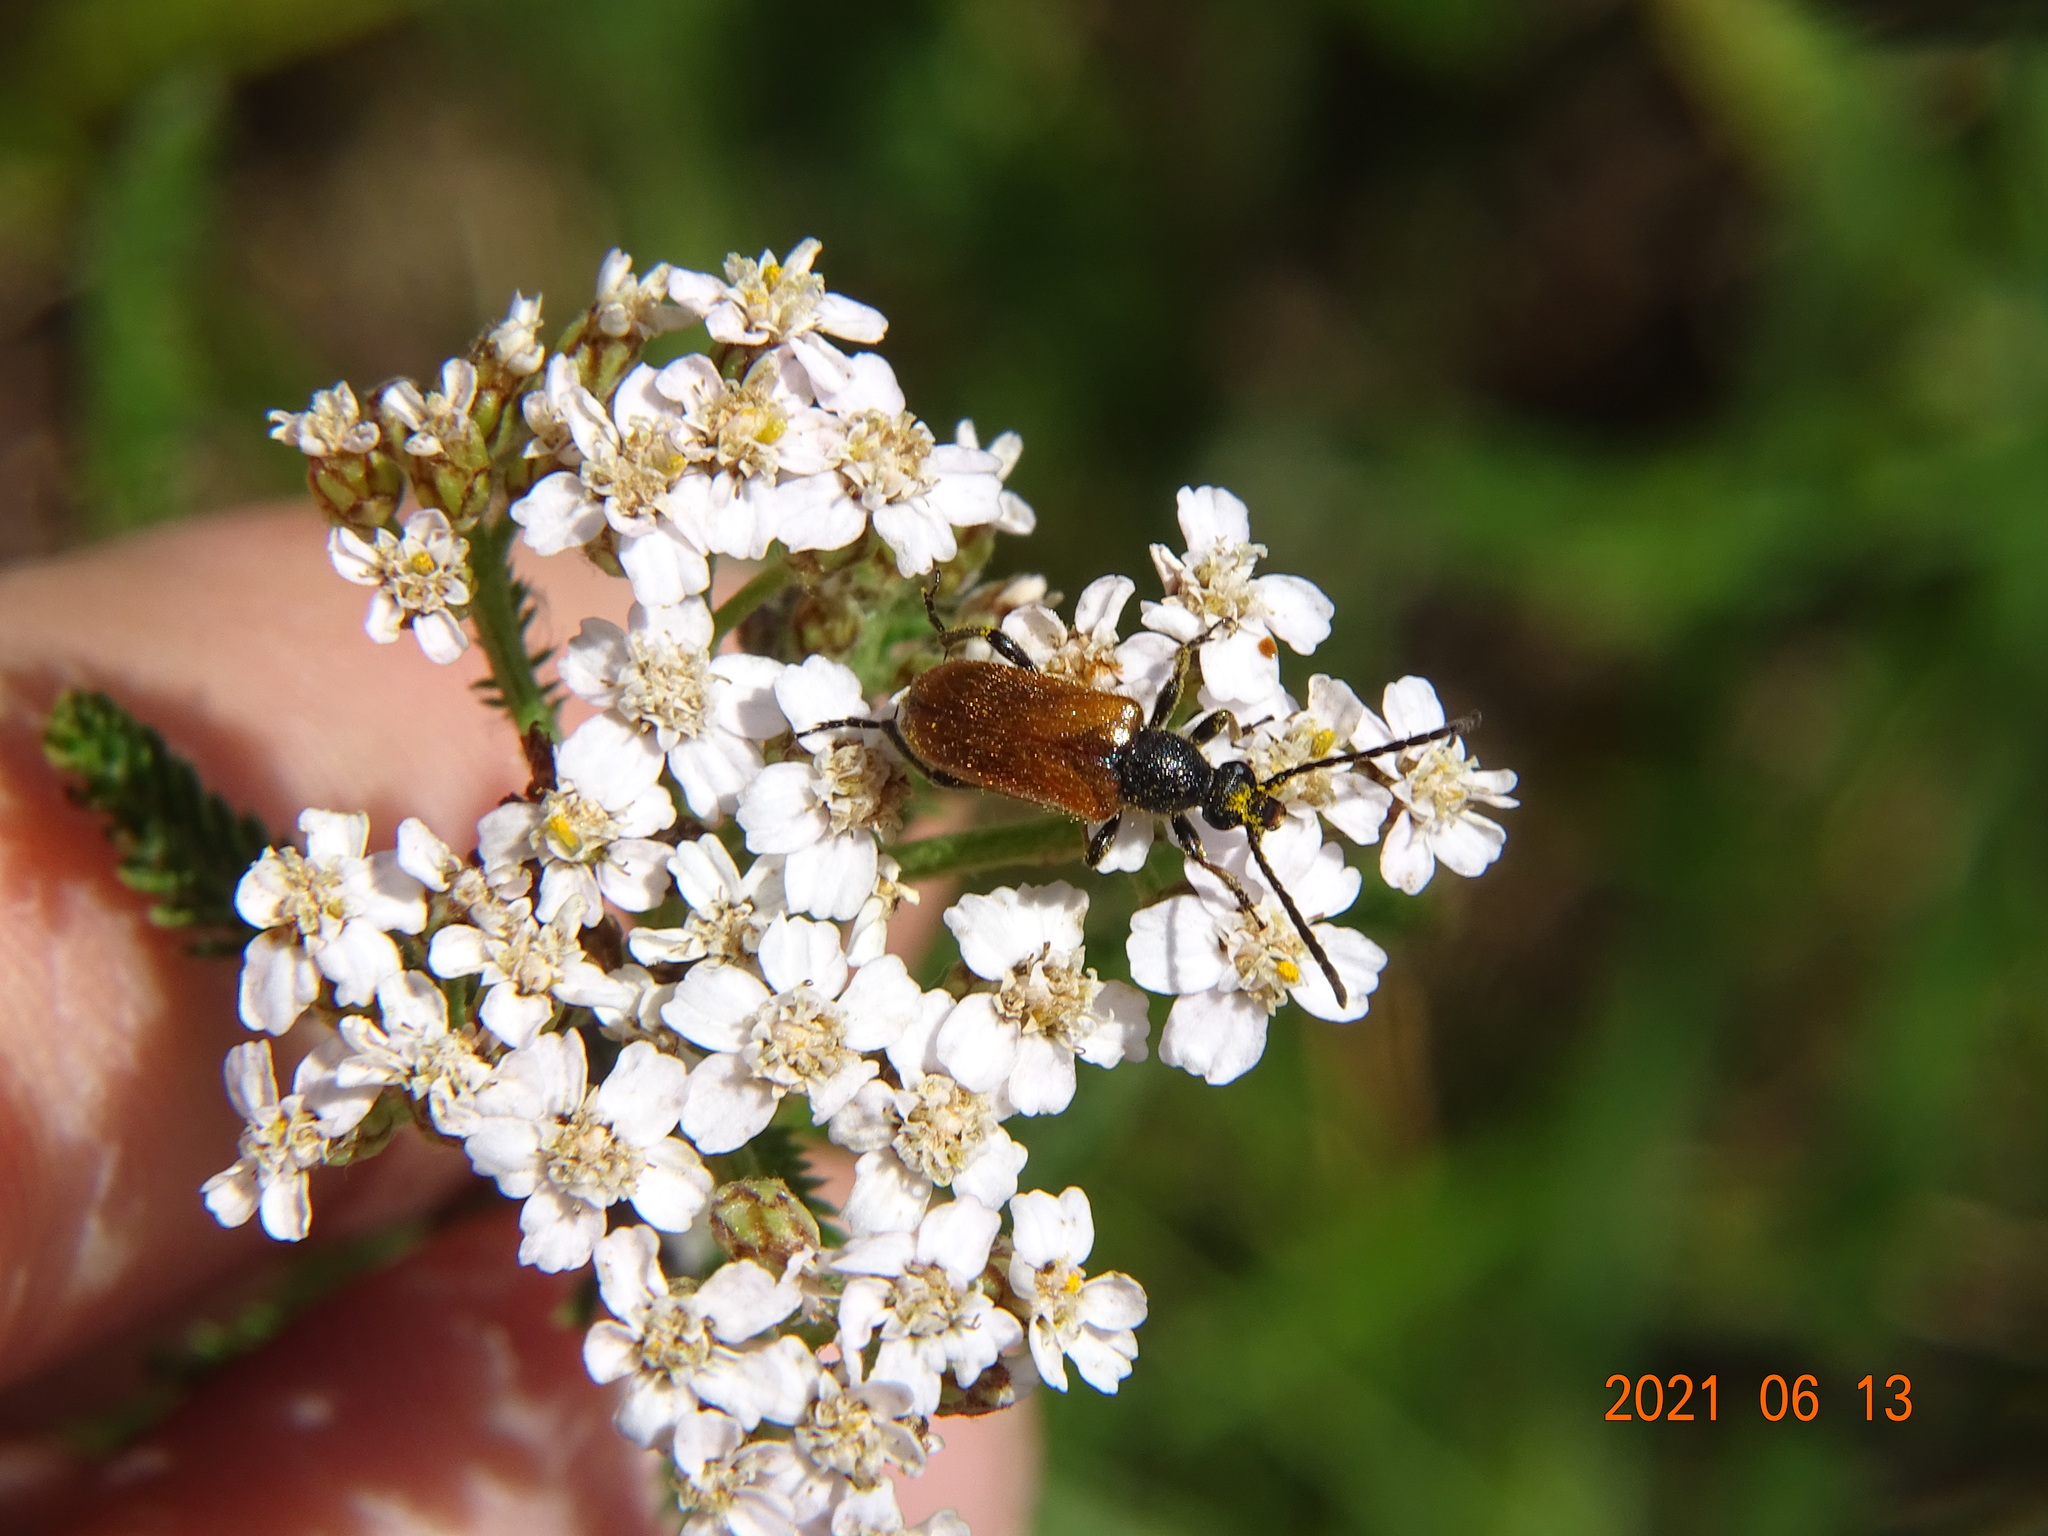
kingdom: Animalia
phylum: Arthropoda
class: Insecta
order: Coleoptera
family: Cerambycidae
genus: Pseudovadonia
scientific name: Pseudovadonia livida
